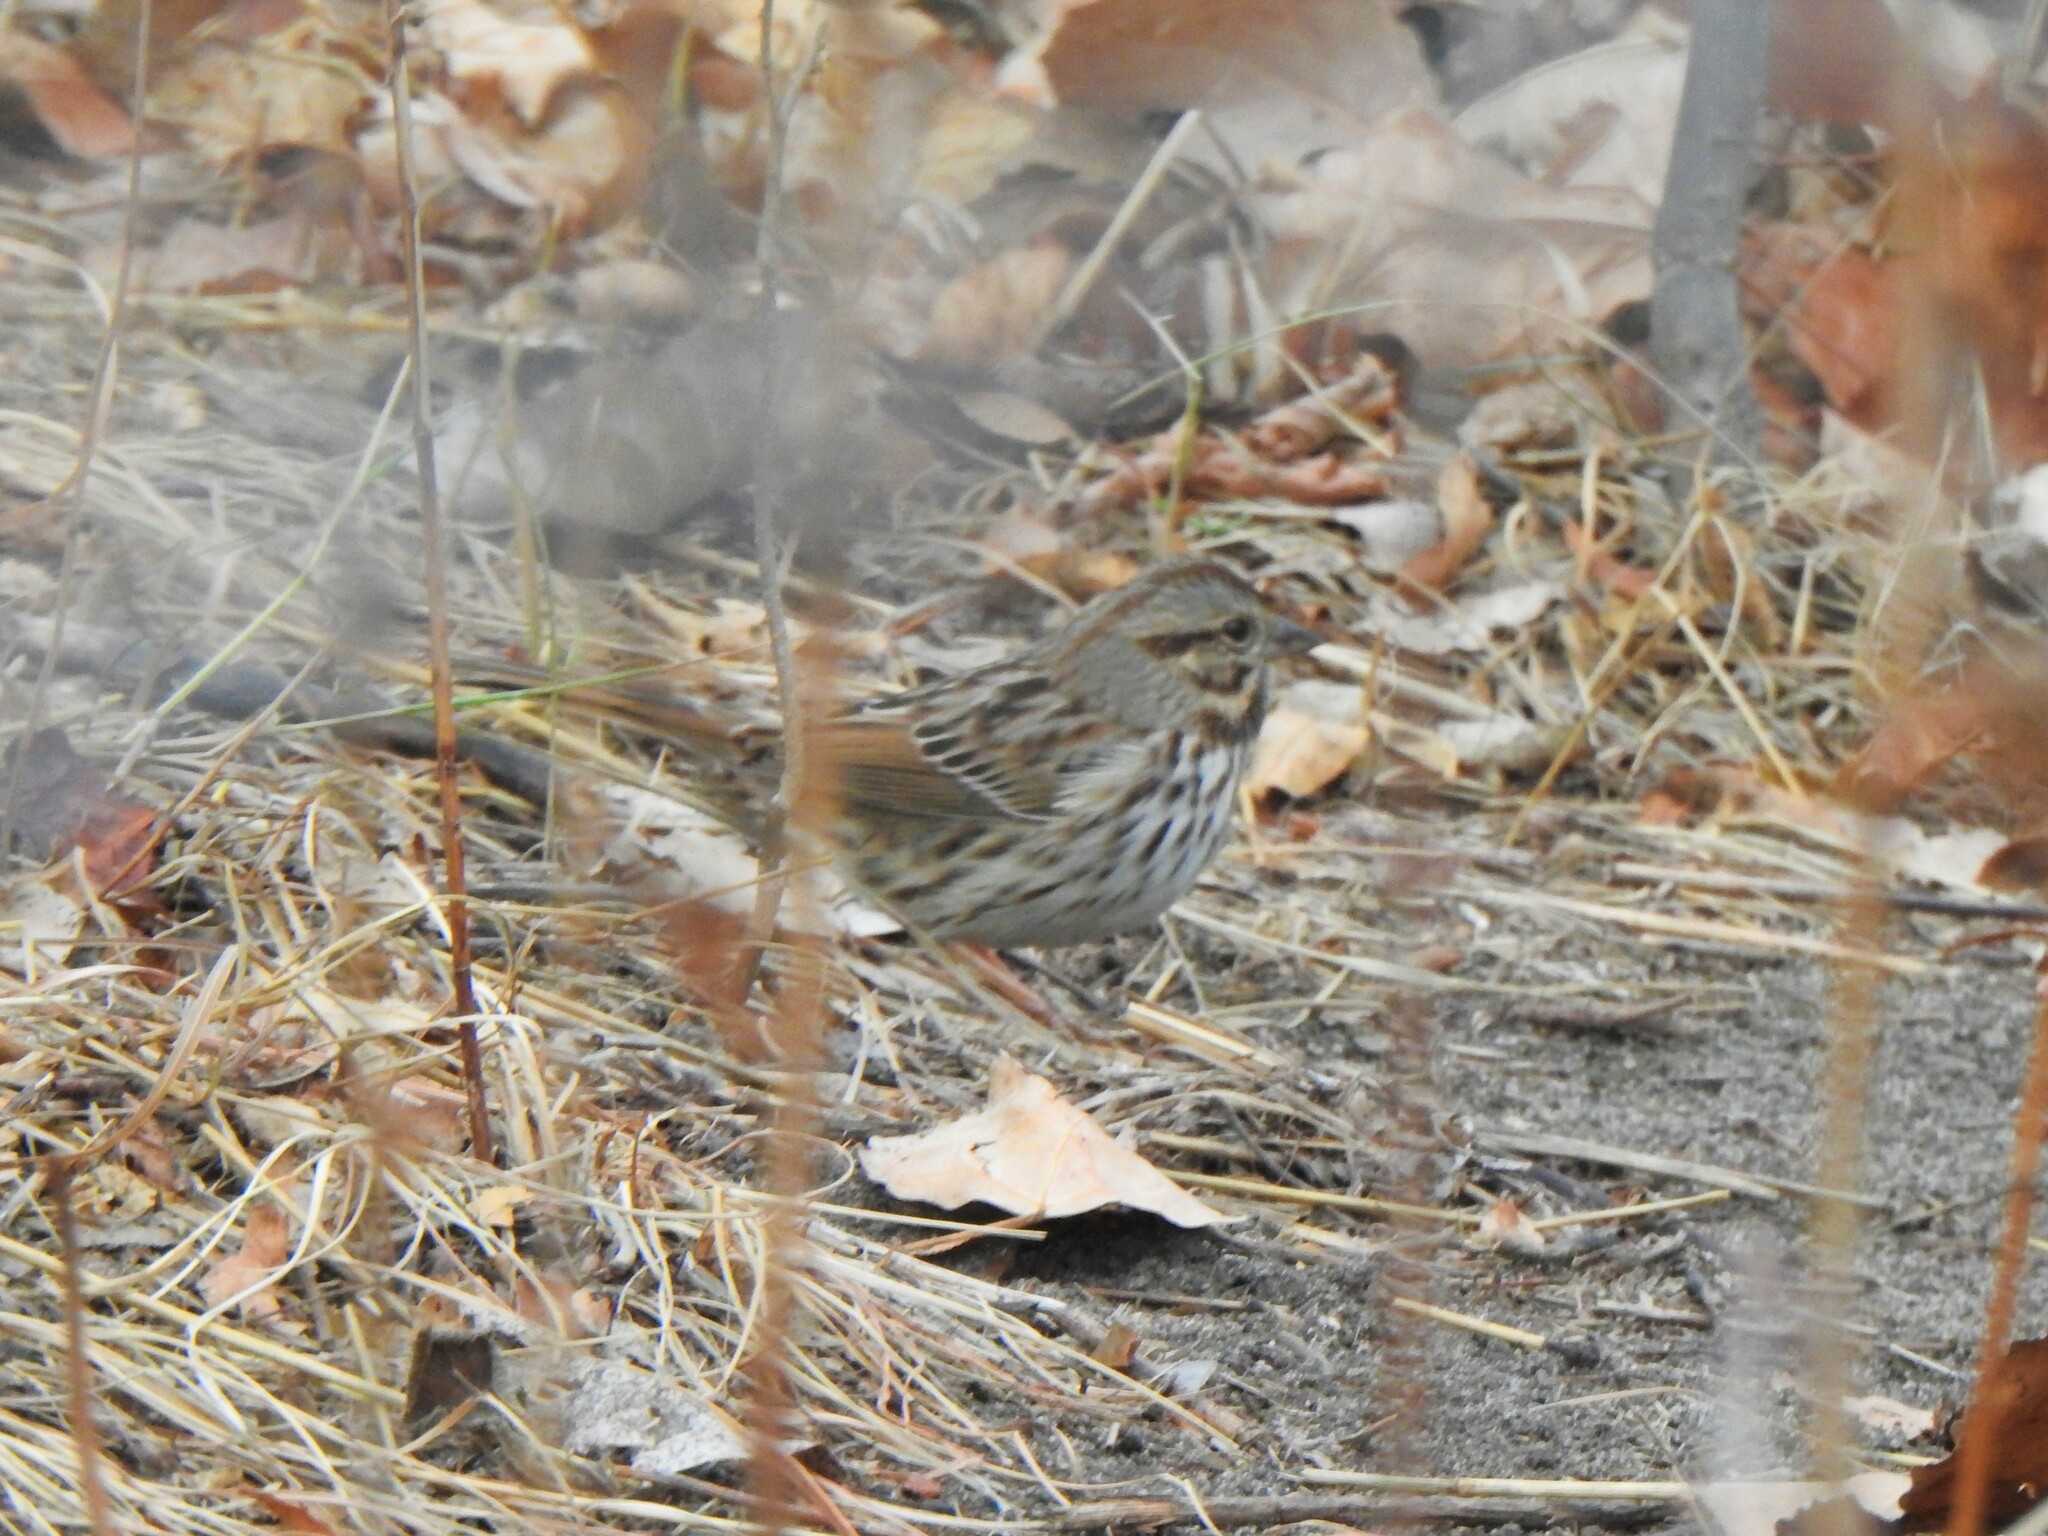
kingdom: Animalia
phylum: Chordata
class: Aves
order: Passeriformes
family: Passerellidae
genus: Melospiza
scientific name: Melospiza melodia
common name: Song sparrow
